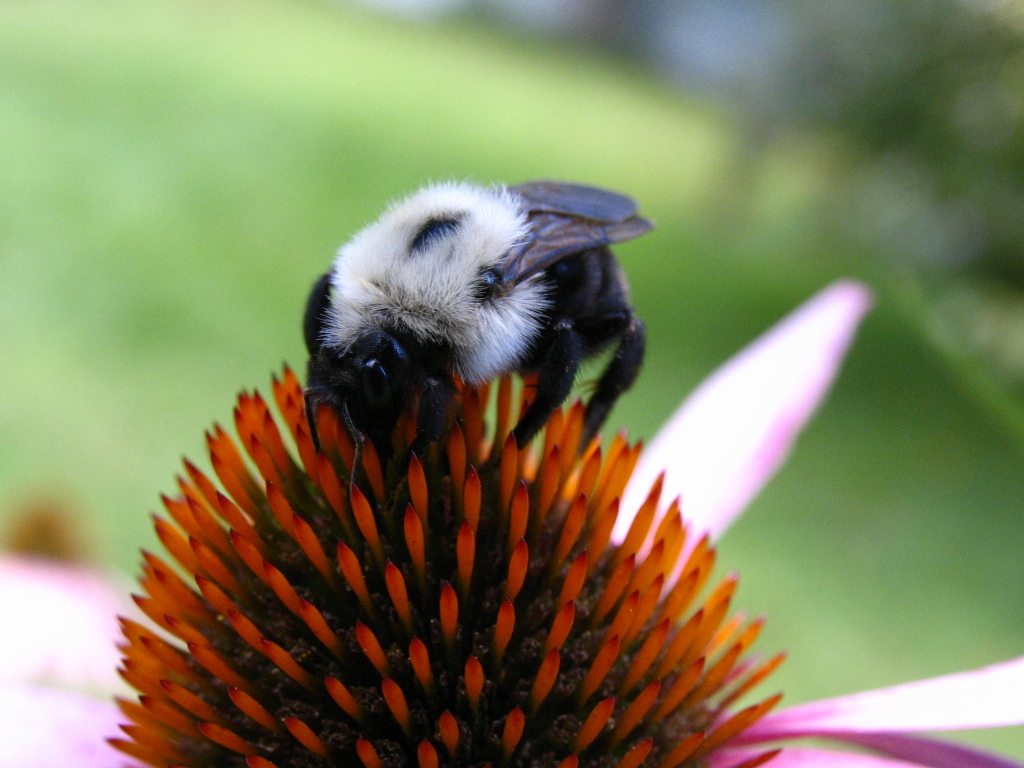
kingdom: Animalia
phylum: Arthropoda
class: Insecta
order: Hymenoptera
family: Apidae
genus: Bombus
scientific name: Bombus citrinus
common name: Lemon cuckoo bumble bee
